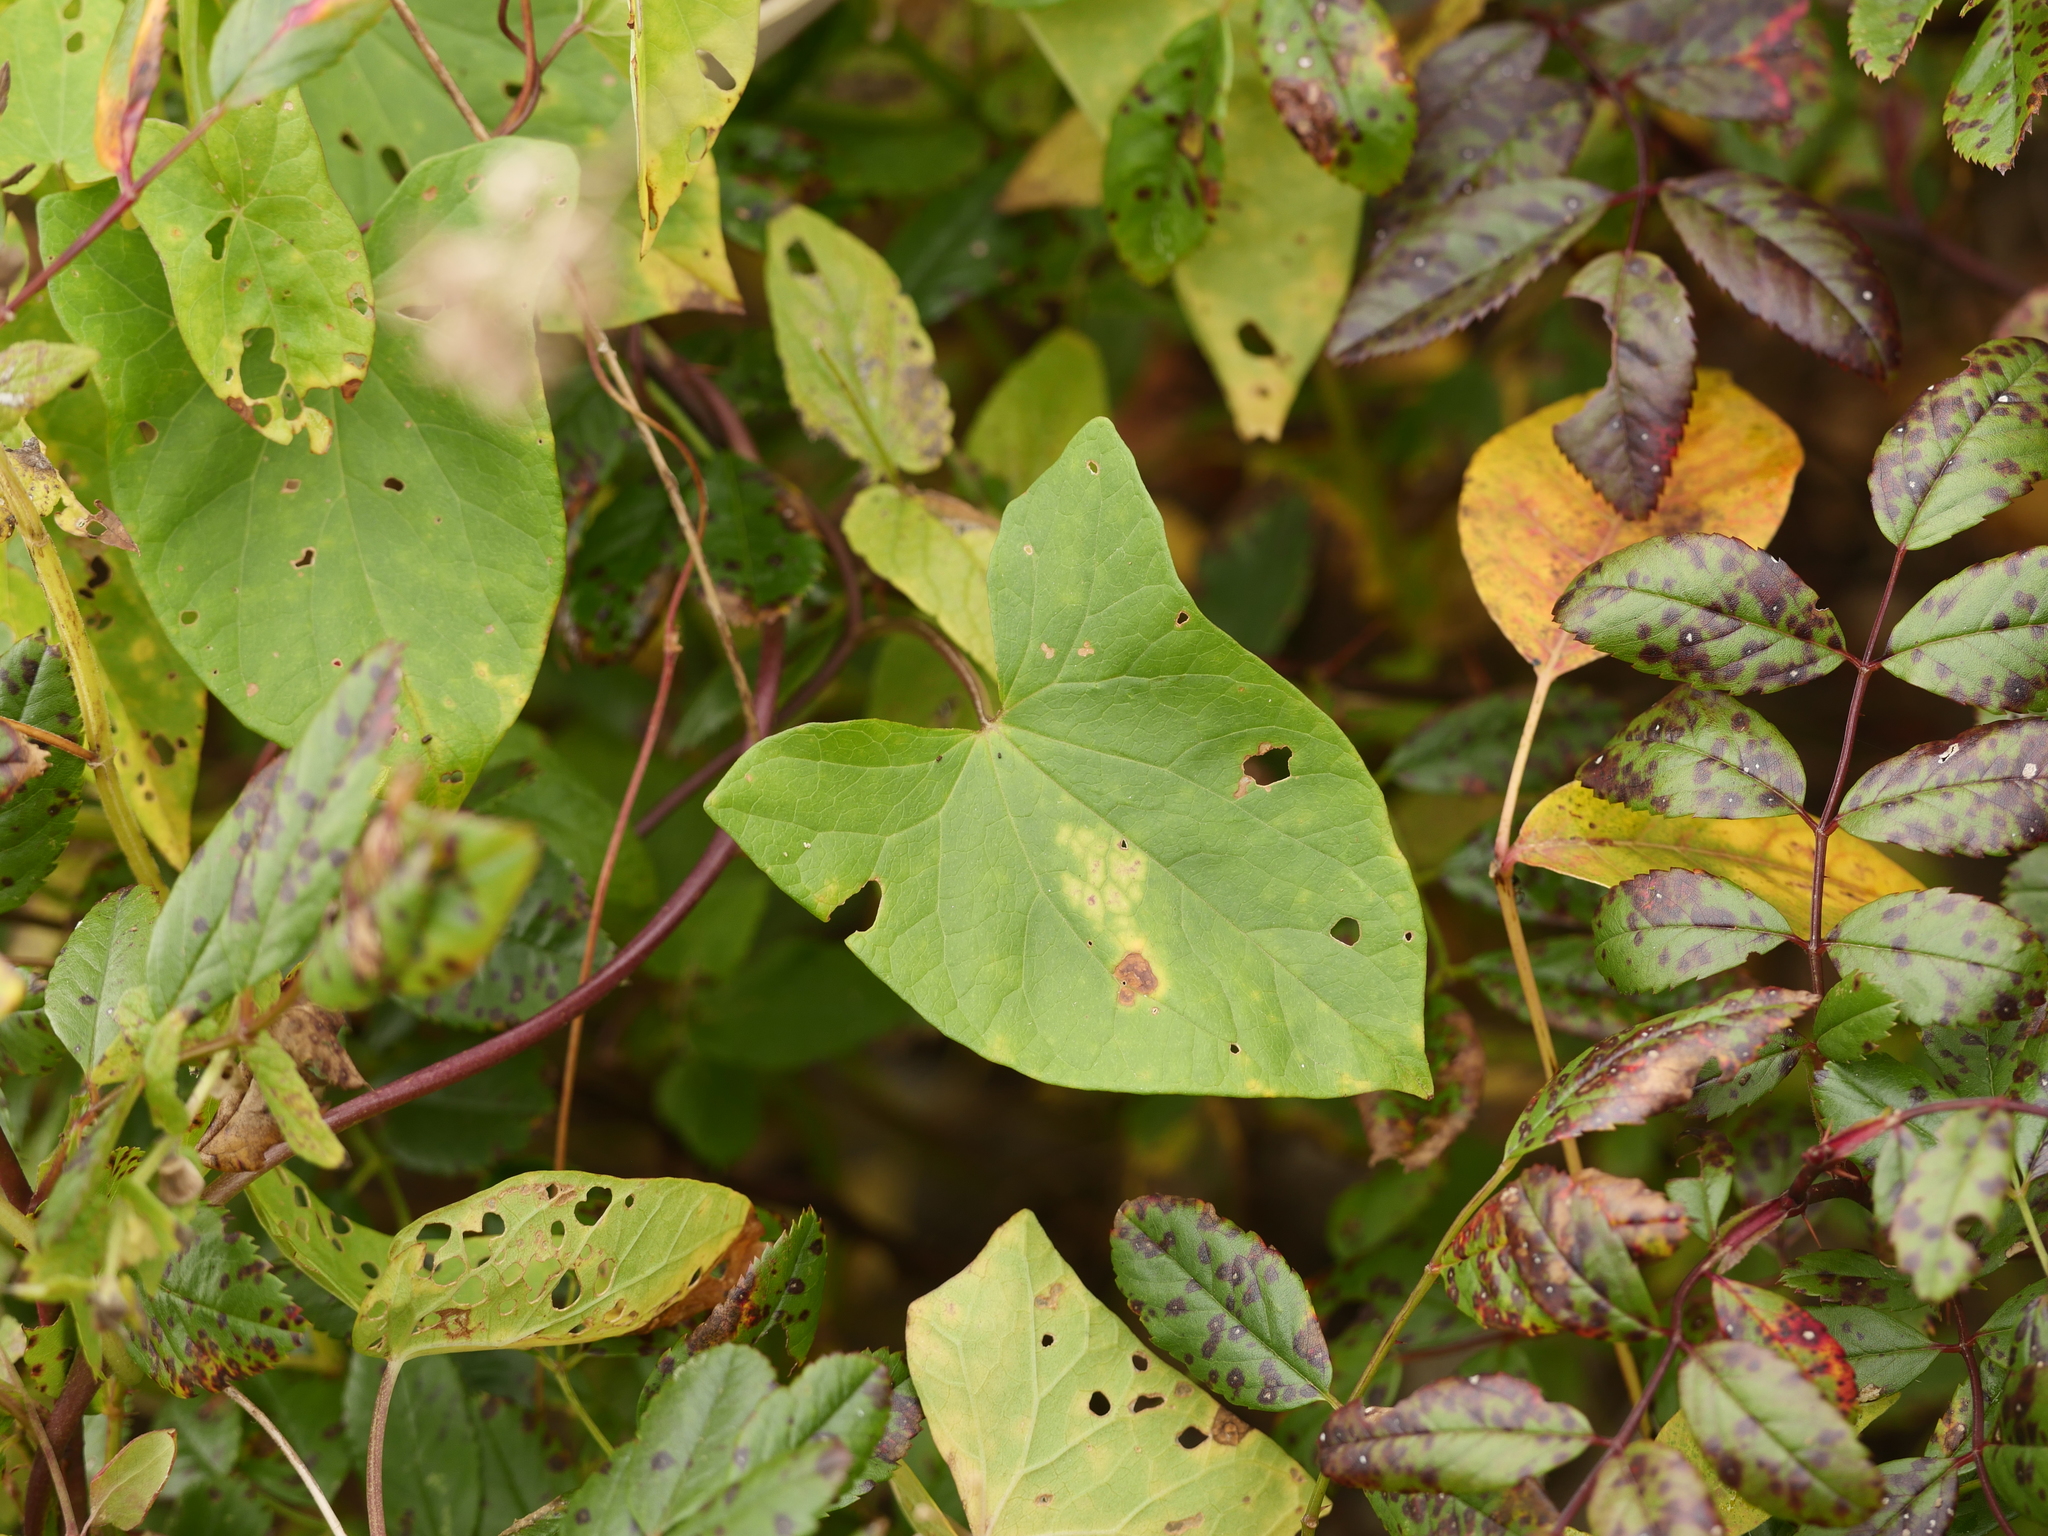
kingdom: Plantae
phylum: Tracheophyta
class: Magnoliopsida
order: Solanales
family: Convolvulaceae
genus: Calystegia
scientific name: Calystegia sepium
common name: Hedge bindweed
